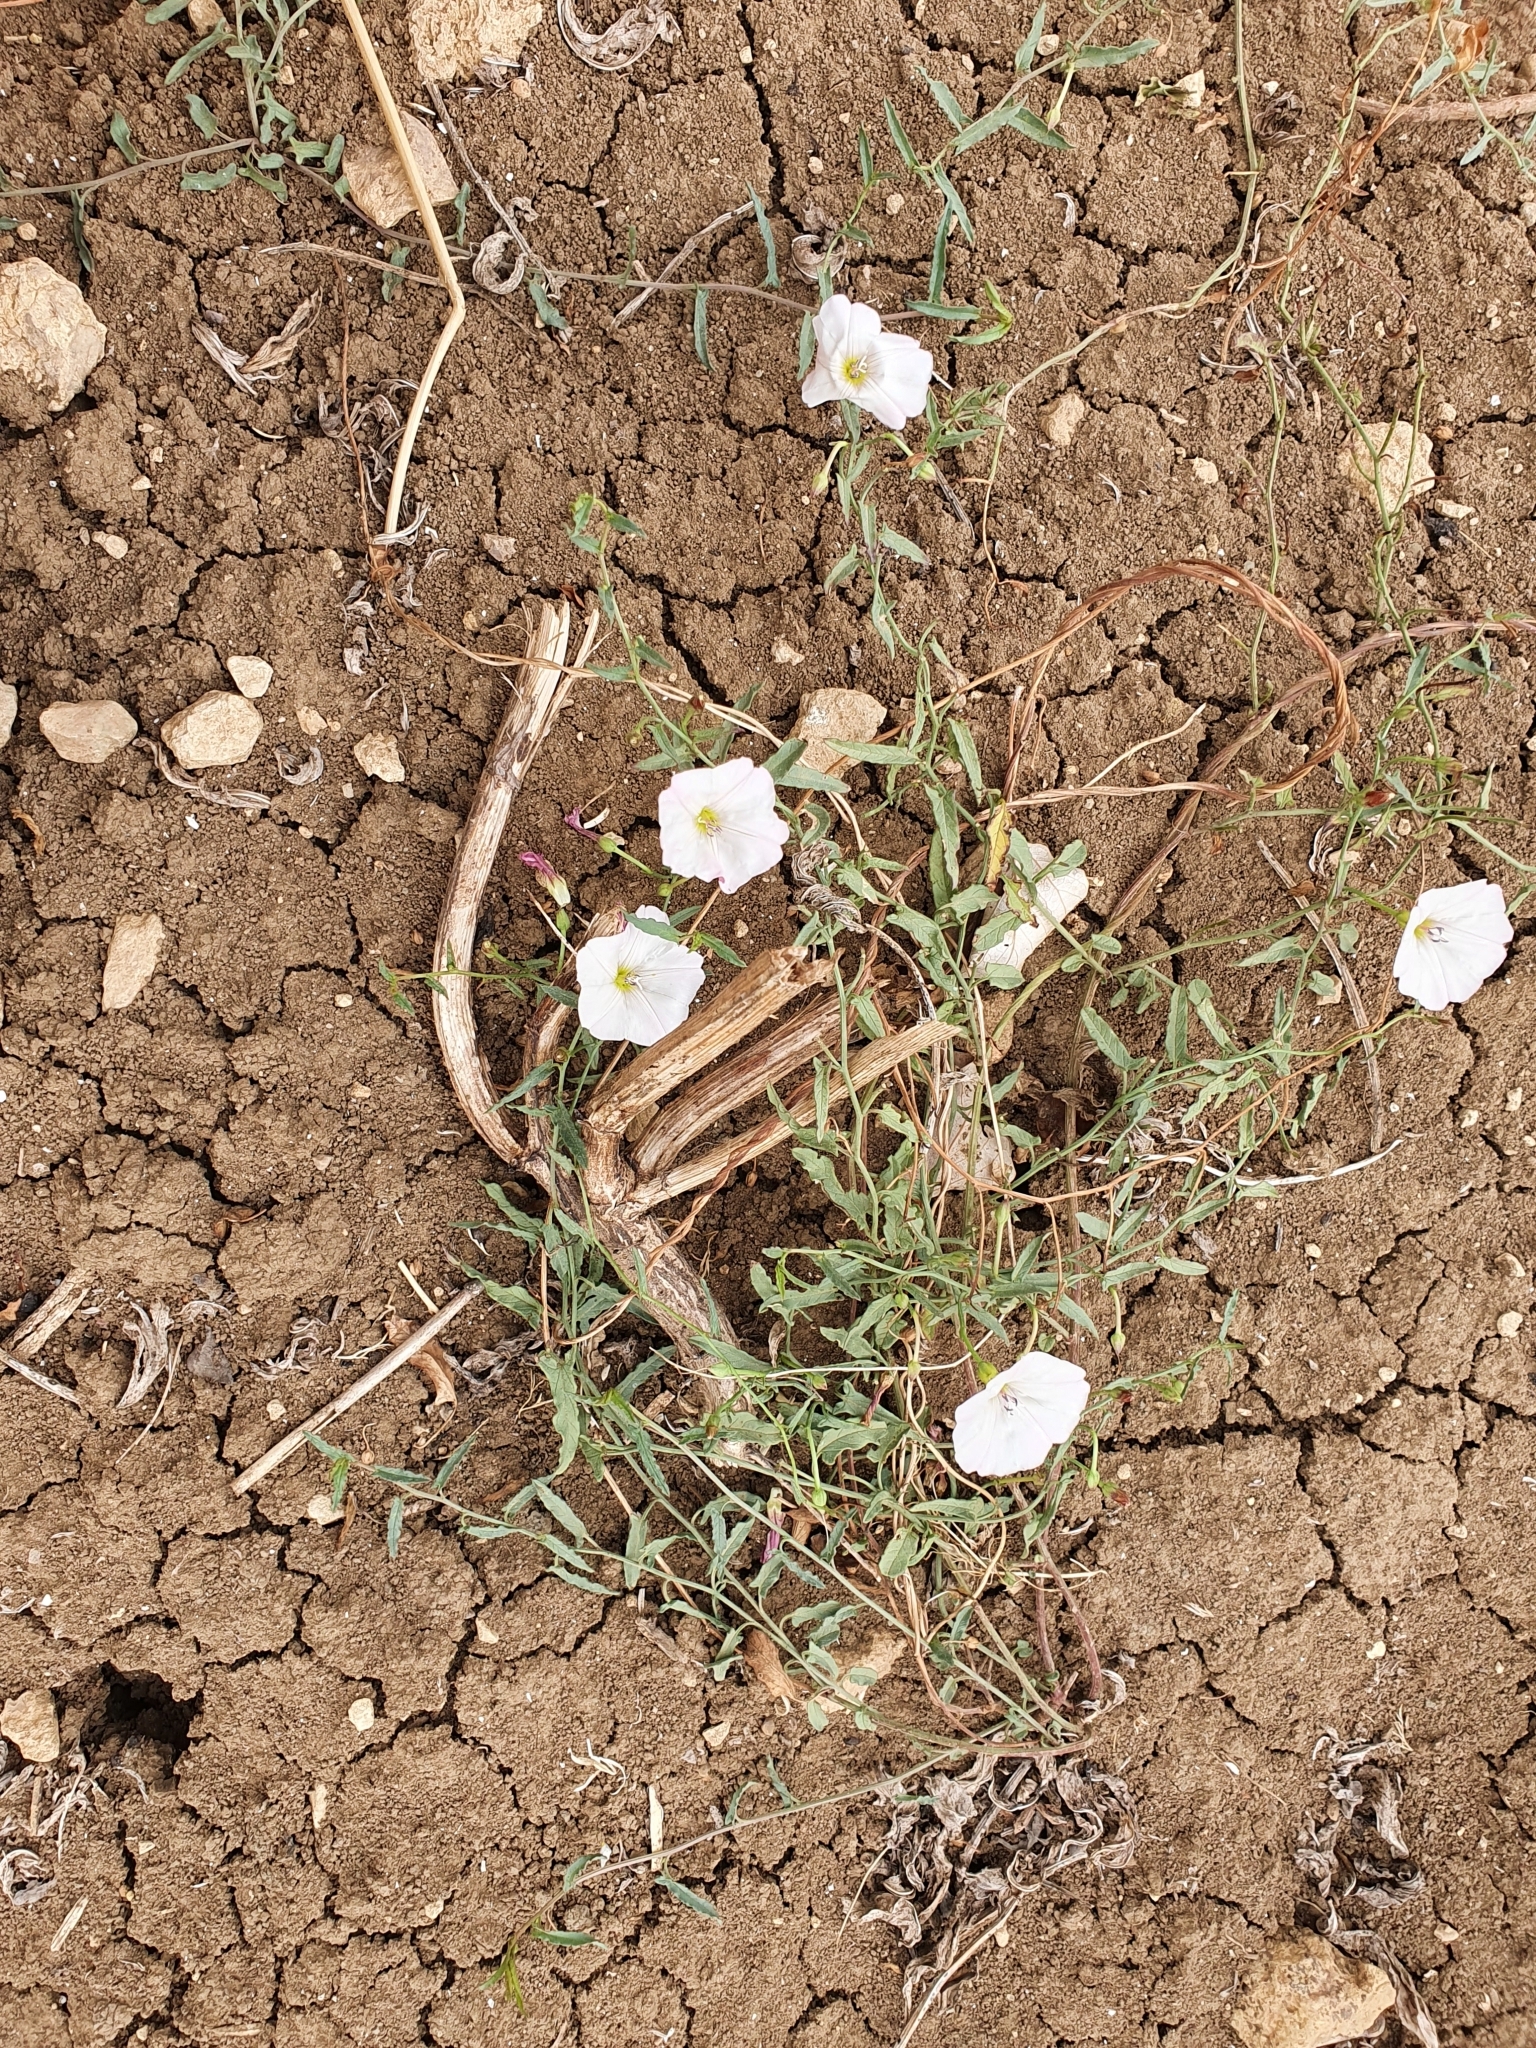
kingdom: Plantae
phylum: Tracheophyta
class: Magnoliopsida
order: Solanales
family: Convolvulaceae
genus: Convolvulus
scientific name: Convolvulus arvensis
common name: Field bindweed
